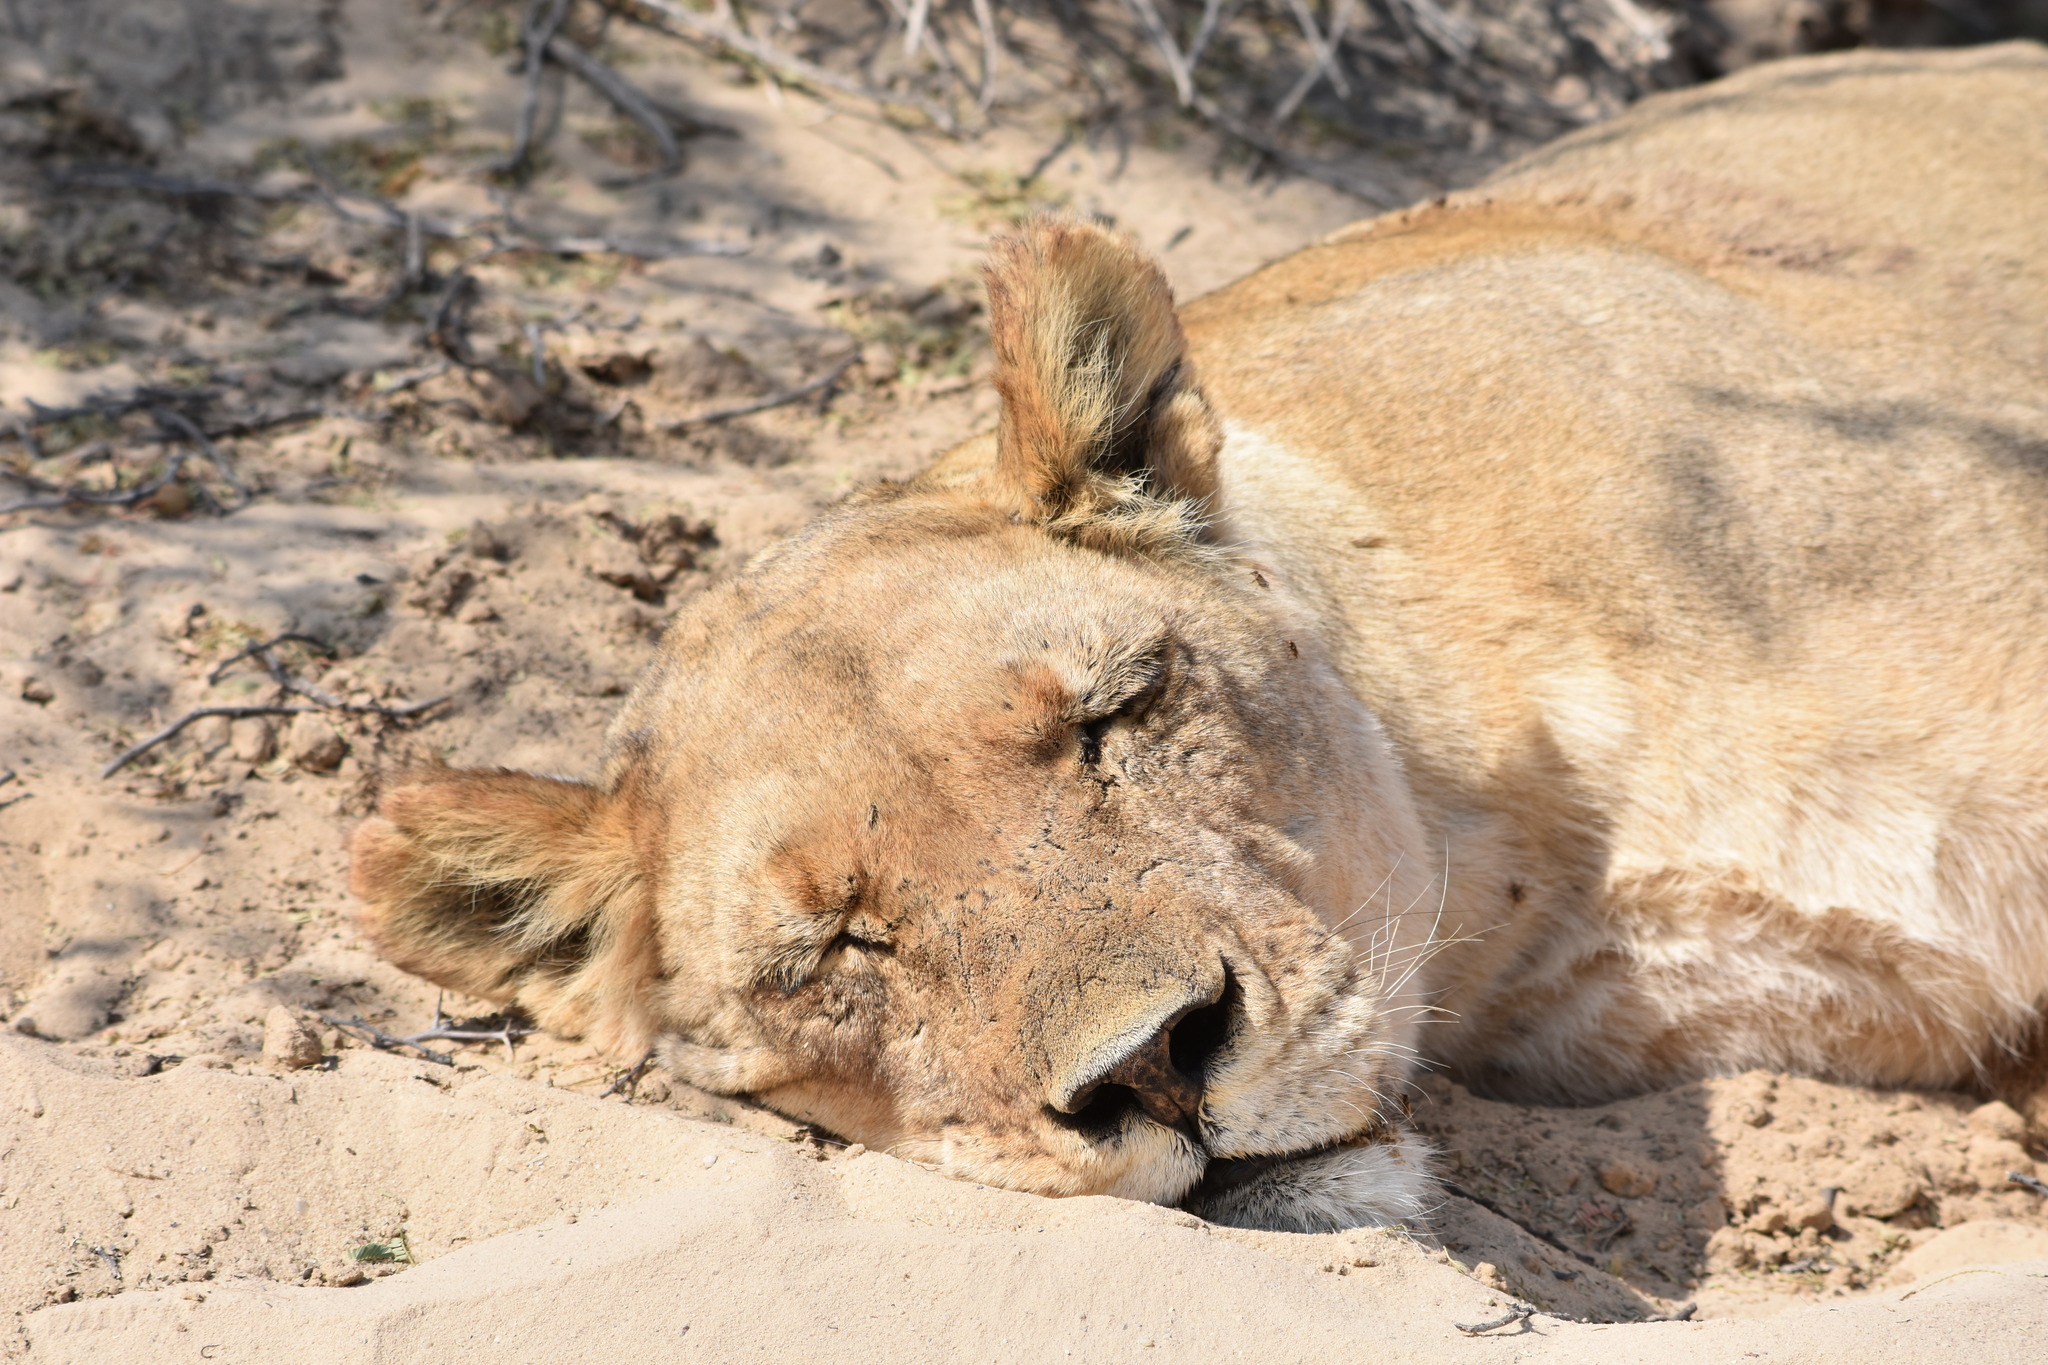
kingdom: Animalia
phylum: Chordata
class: Mammalia
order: Carnivora
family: Felidae
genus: Panthera
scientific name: Panthera leo
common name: Lion
